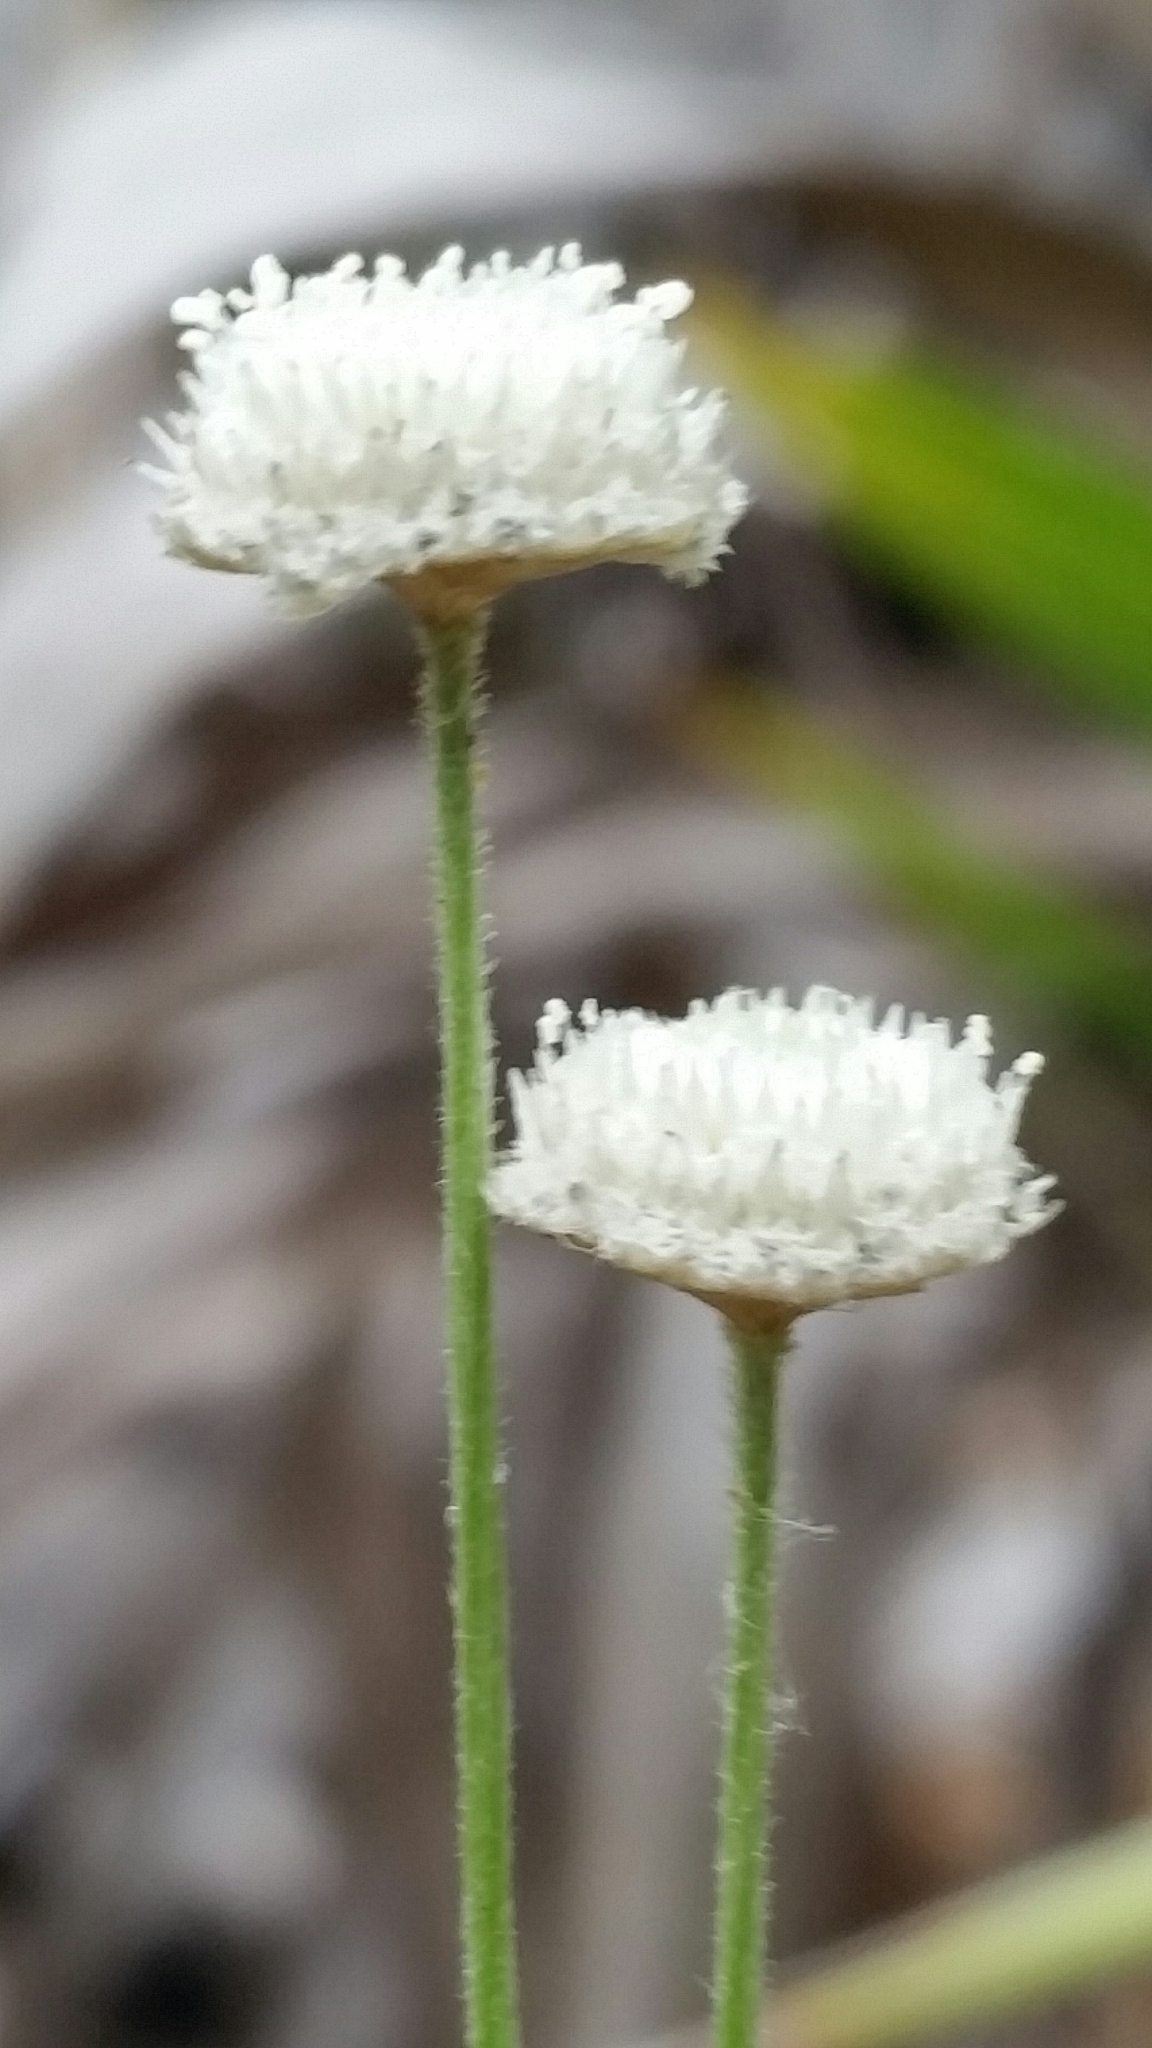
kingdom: Plantae
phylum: Tracheophyta
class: Liliopsida
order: Poales
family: Eriocaulaceae
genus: Syngonanthus
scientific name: Syngonanthus flavidulus
